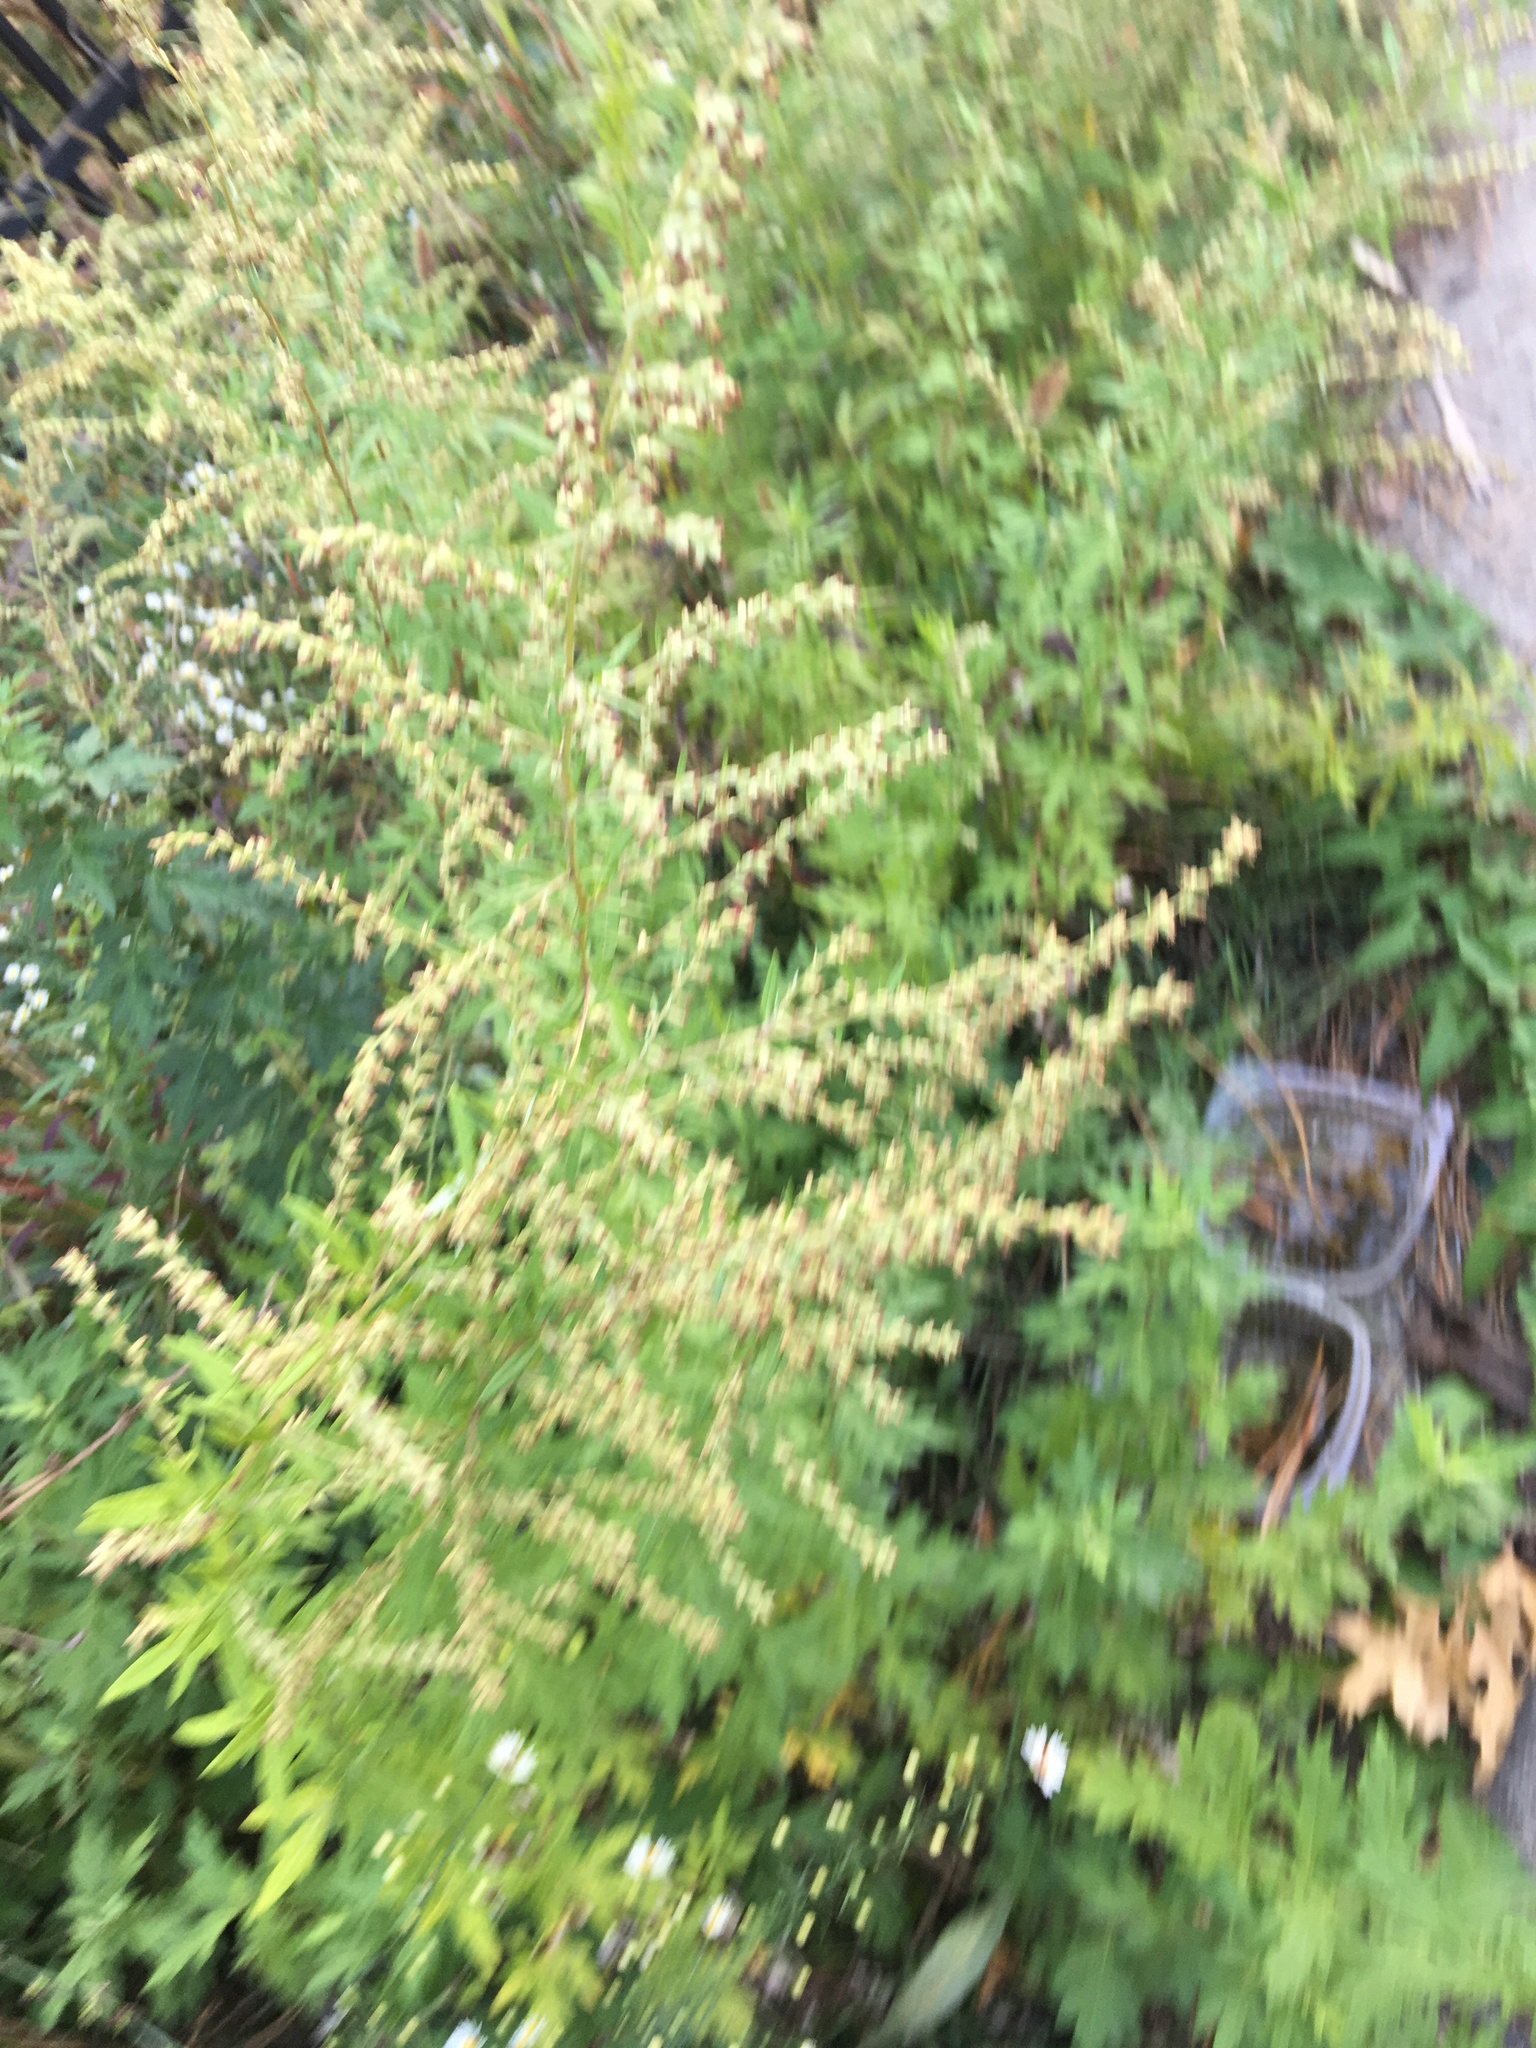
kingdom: Plantae
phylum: Tracheophyta
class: Magnoliopsida
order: Asterales
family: Asteraceae
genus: Artemisia
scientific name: Artemisia vulgaris
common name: Mugwort
